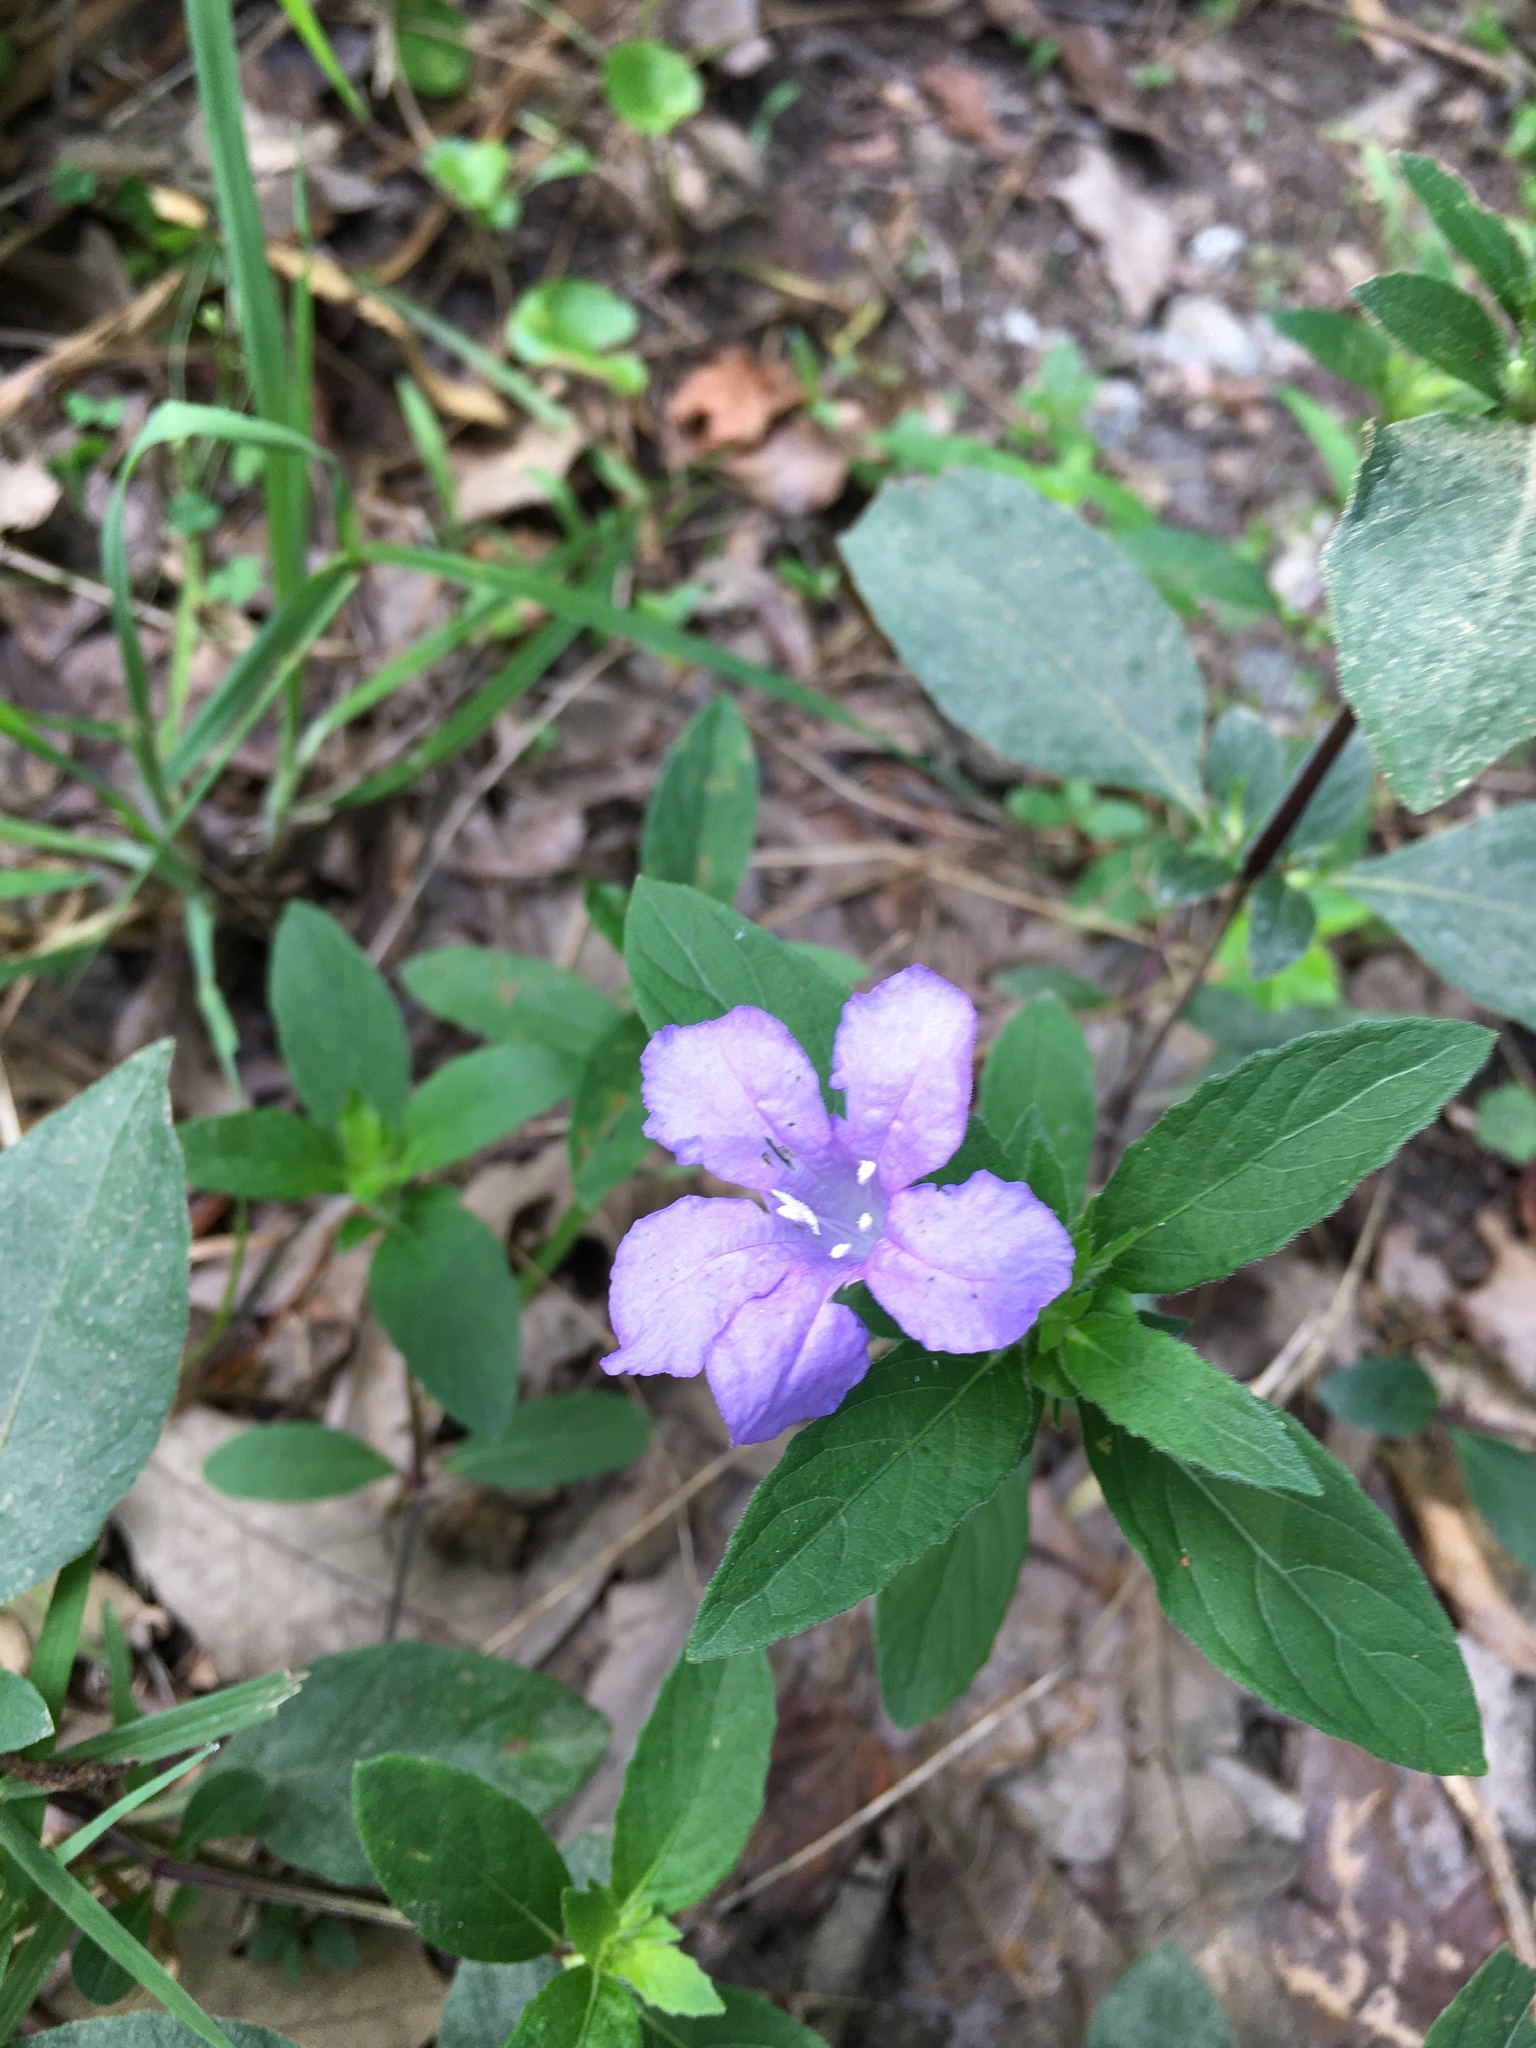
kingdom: Plantae
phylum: Tracheophyta
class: Magnoliopsida
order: Lamiales
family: Acanthaceae
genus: Ruellia
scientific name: Ruellia caroliniensis
